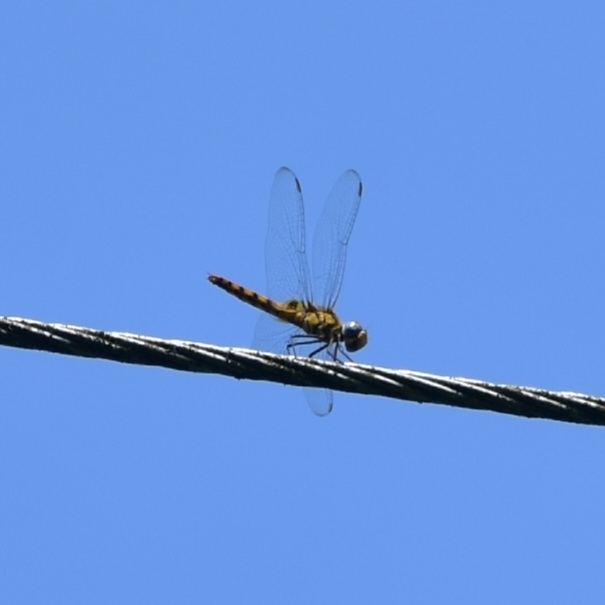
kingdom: Animalia
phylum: Arthropoda
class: Insecta
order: Odonata
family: Libellulidae
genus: Urothemis
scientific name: Urothemis signata
